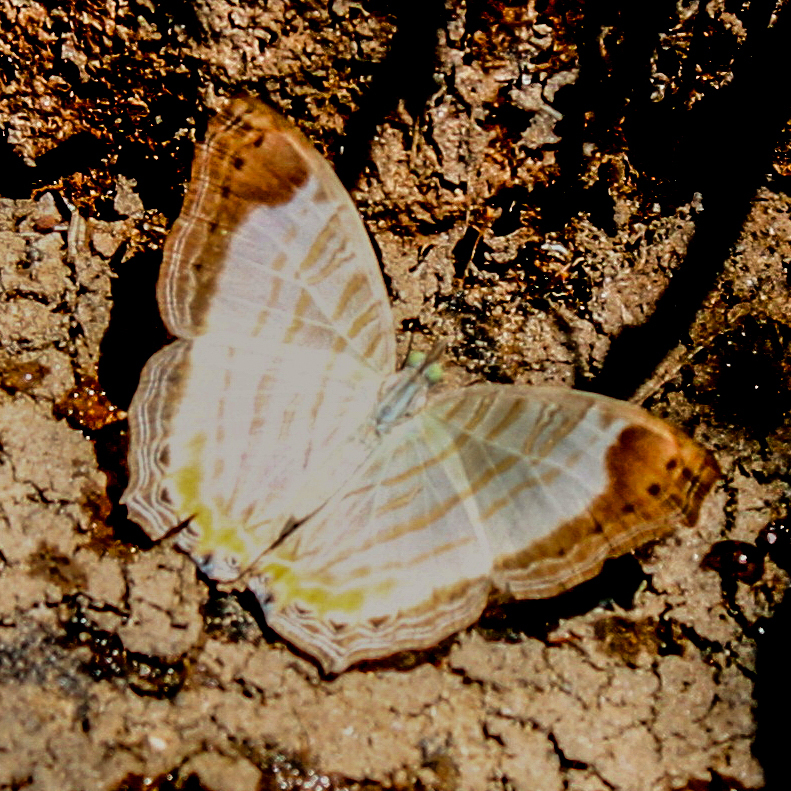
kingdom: Animalia
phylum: Arthropoda
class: Insecta
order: Lepidoptera
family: Nymphalidae
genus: Cyrestis
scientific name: Cyrestis themire
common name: Little mapwing
